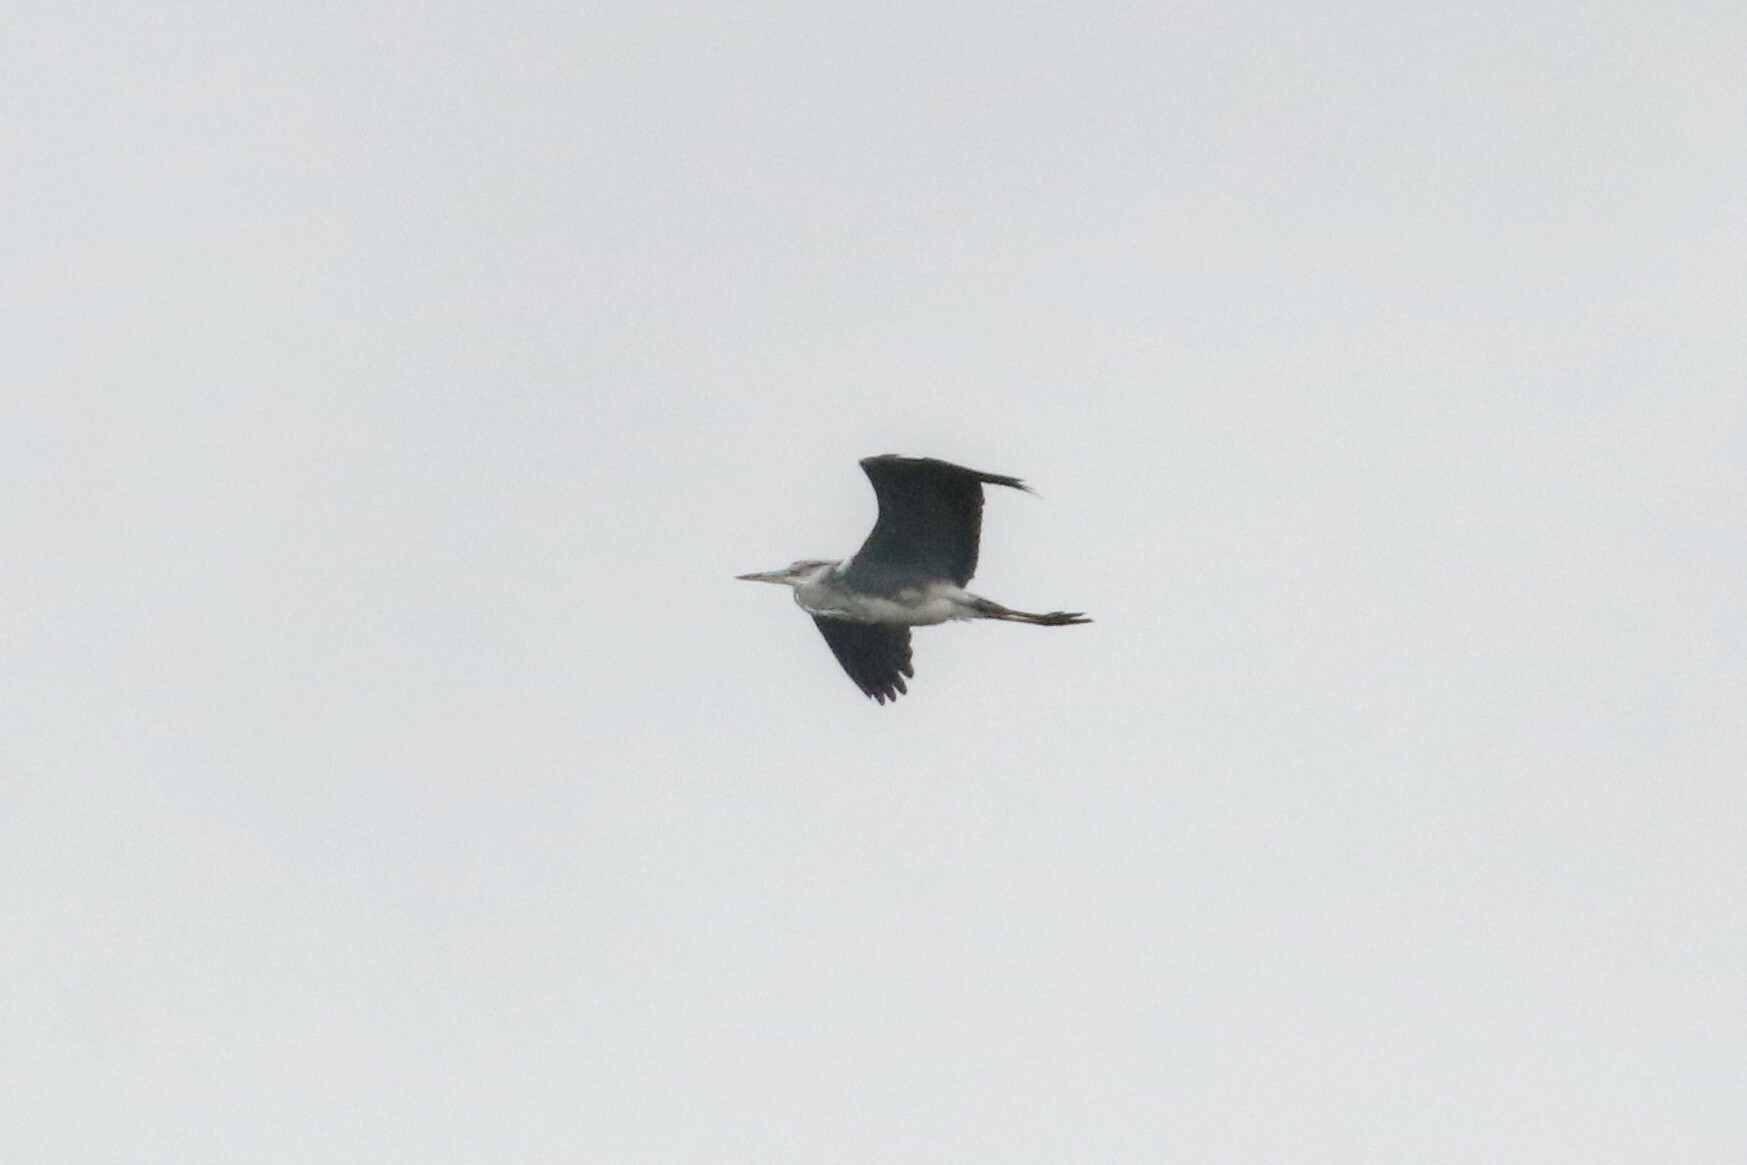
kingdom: Animalia
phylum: Chordata
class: Aves
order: Pelecaniformes
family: Ardeidae
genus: Ardea
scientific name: Ardea cinerea
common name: Grey heron
